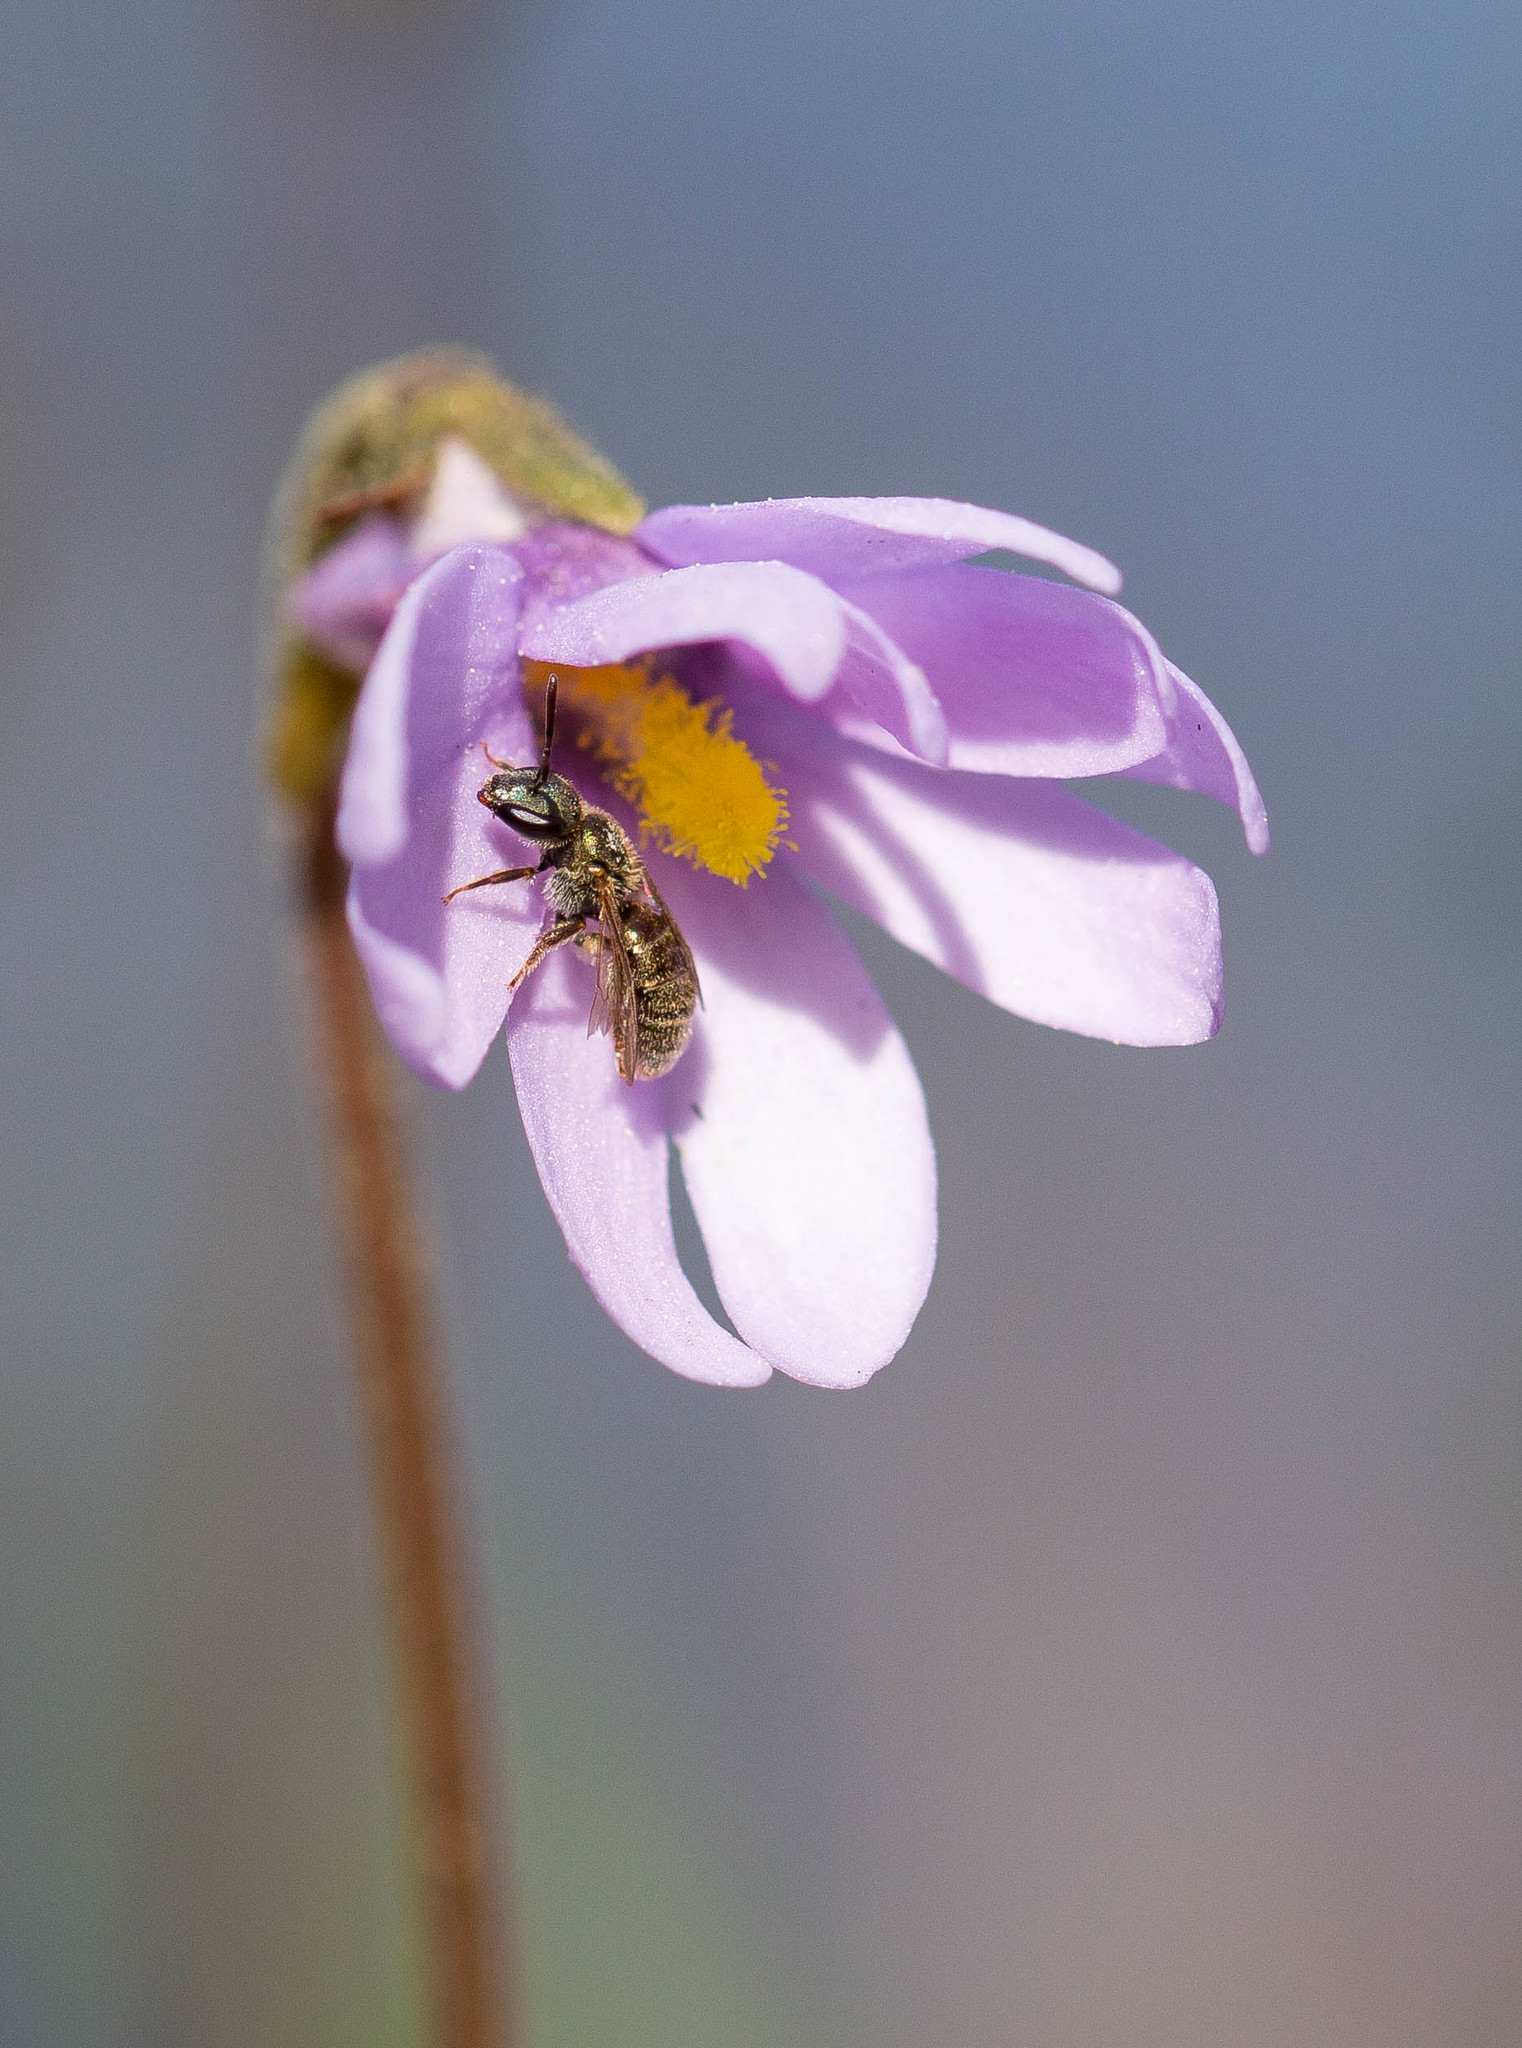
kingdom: Plantae
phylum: Tracheophyta
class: Magnoliopsida
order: Lamiales
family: Lentibulariaceae
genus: Pinguicula
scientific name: Pinguicula planifolia
